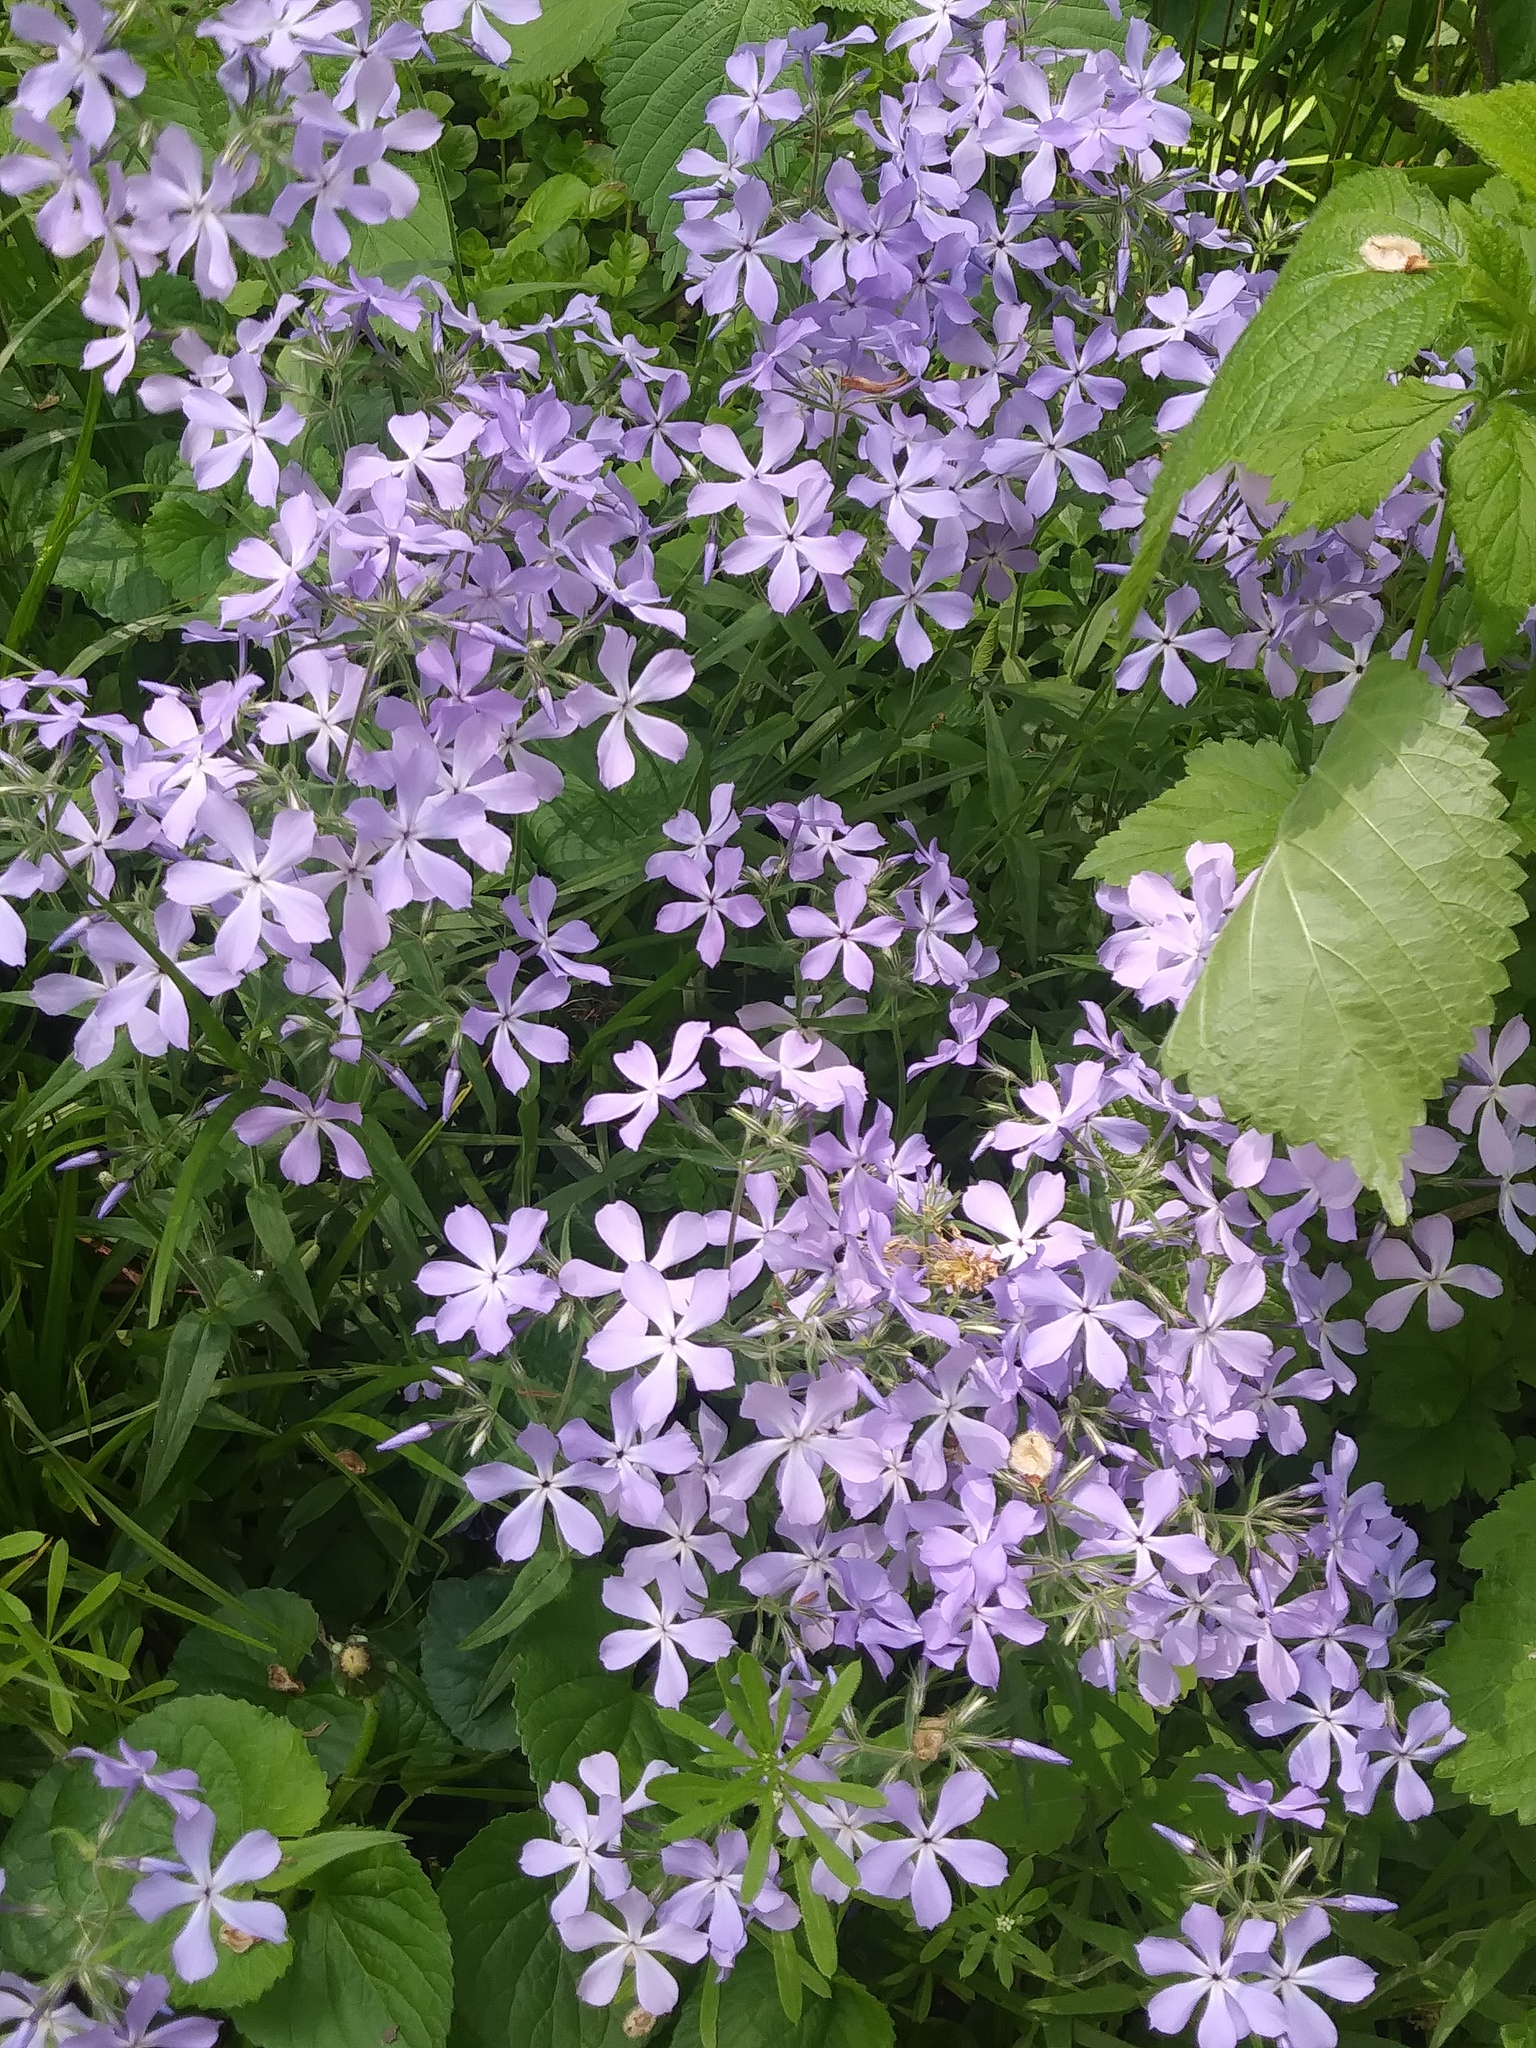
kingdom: Plantae
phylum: Tracheophyta
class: Magnoliopsida
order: Ericales
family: Polemoniaceae
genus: Phlox
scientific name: Phlox divaricata
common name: Blue phlox
